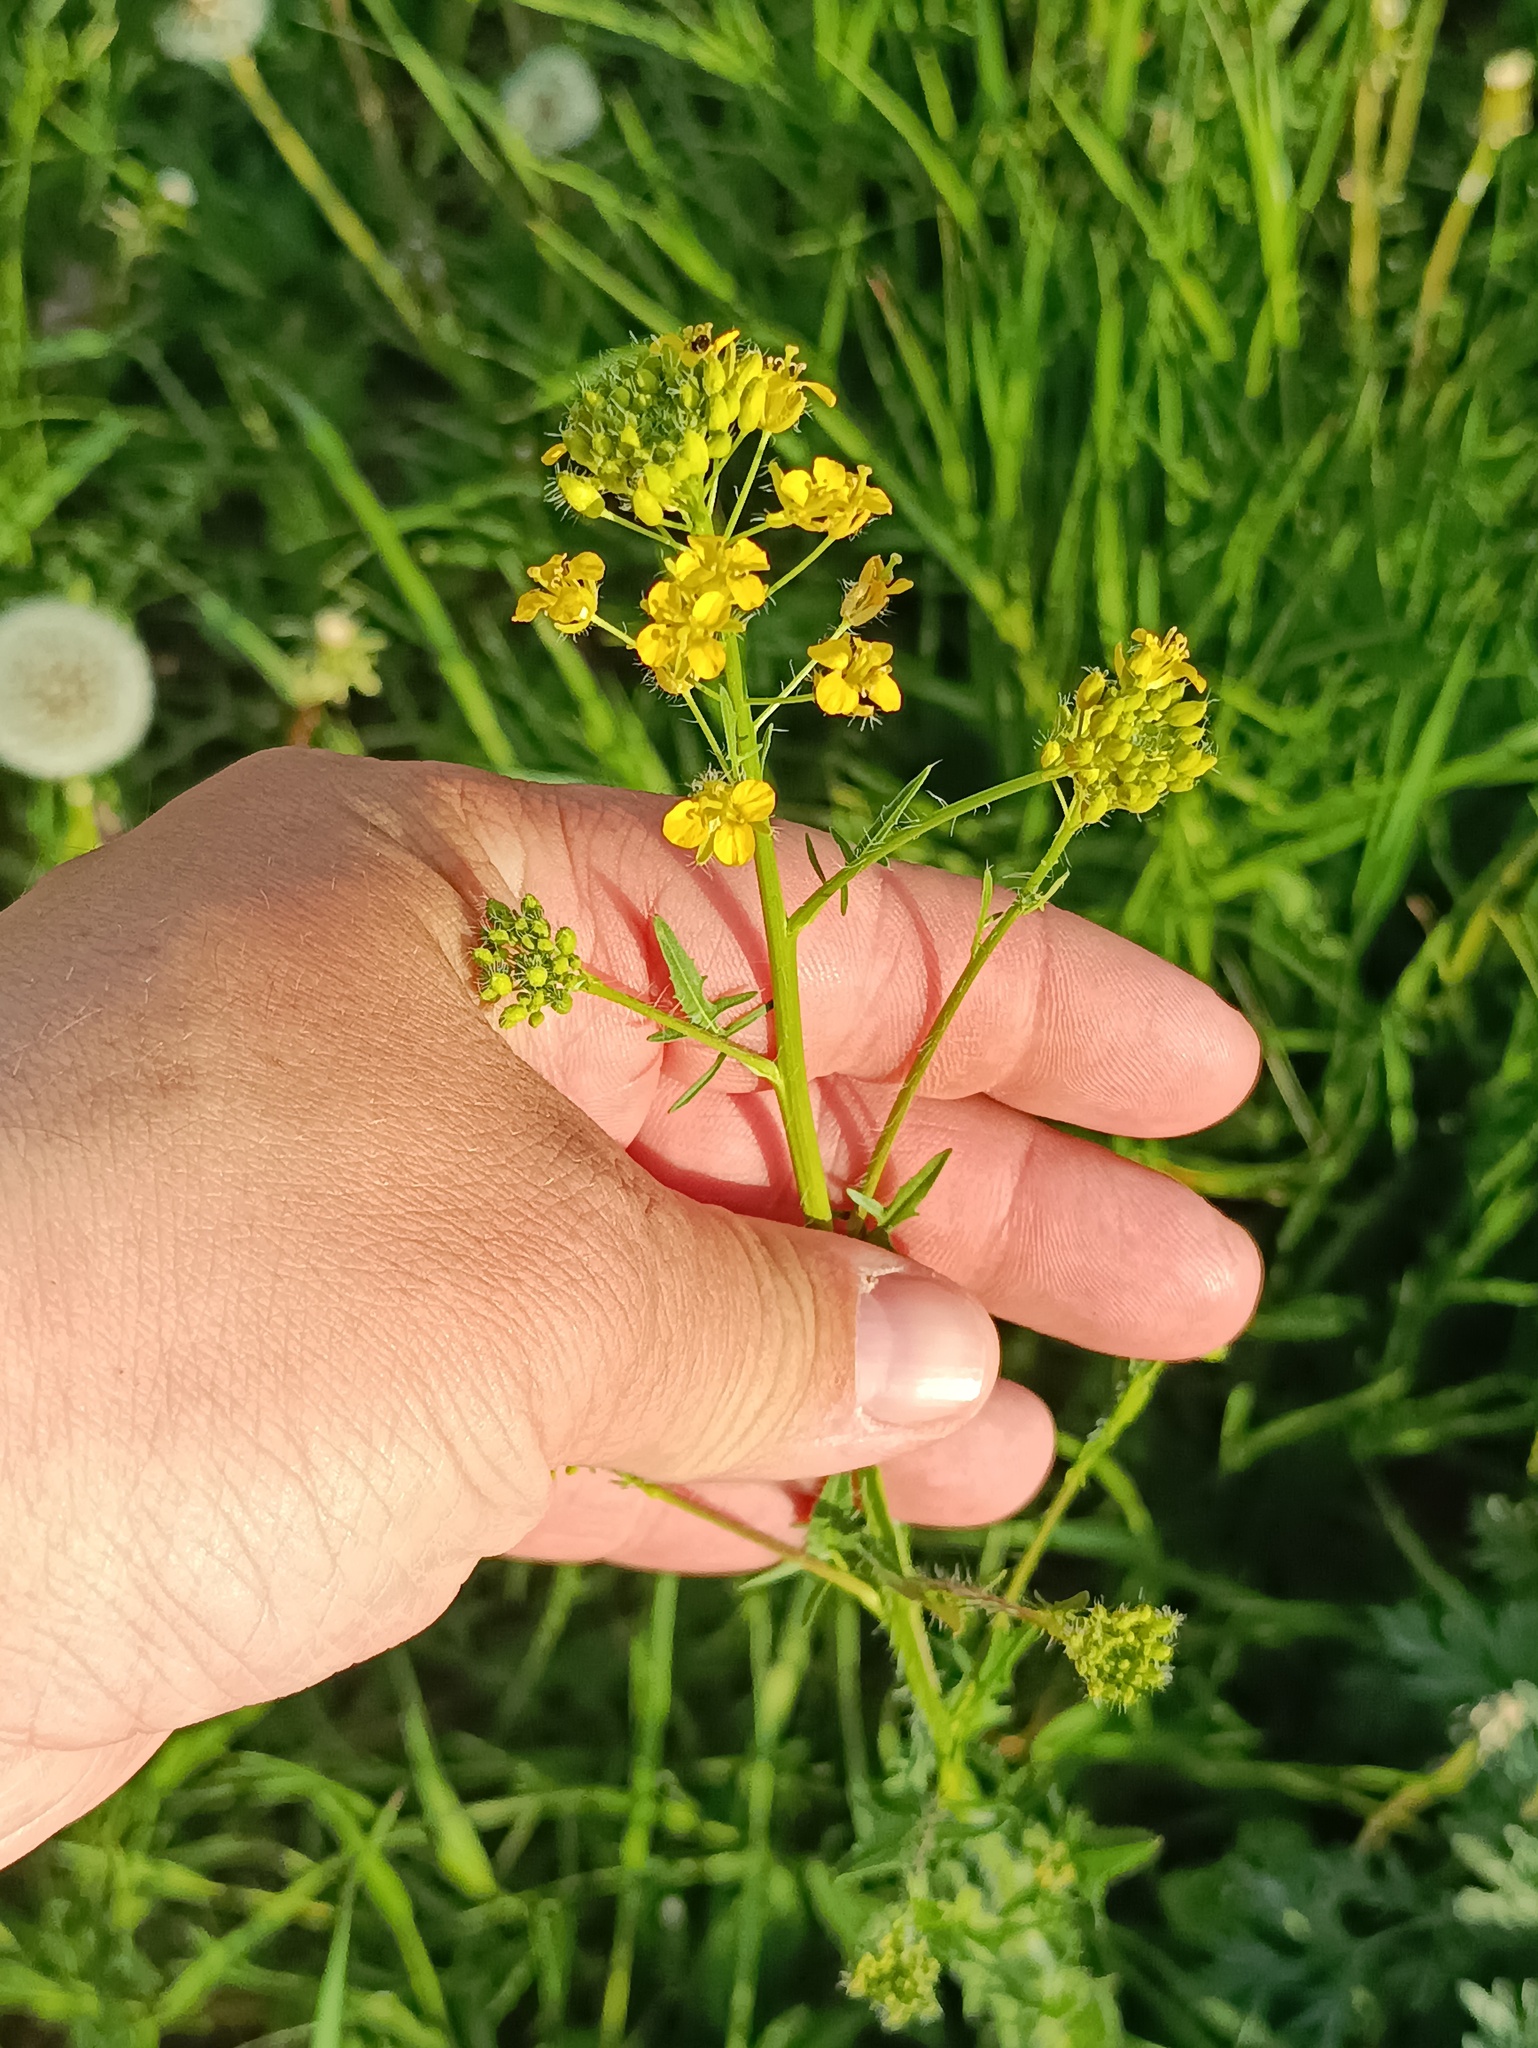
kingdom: Plantae
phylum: Tracheophyta
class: Magnoliopsida
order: Brassicales
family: Brassicaceae
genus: Sisymbrium
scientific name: Sisymbrium loeselii
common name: False london-rocket
